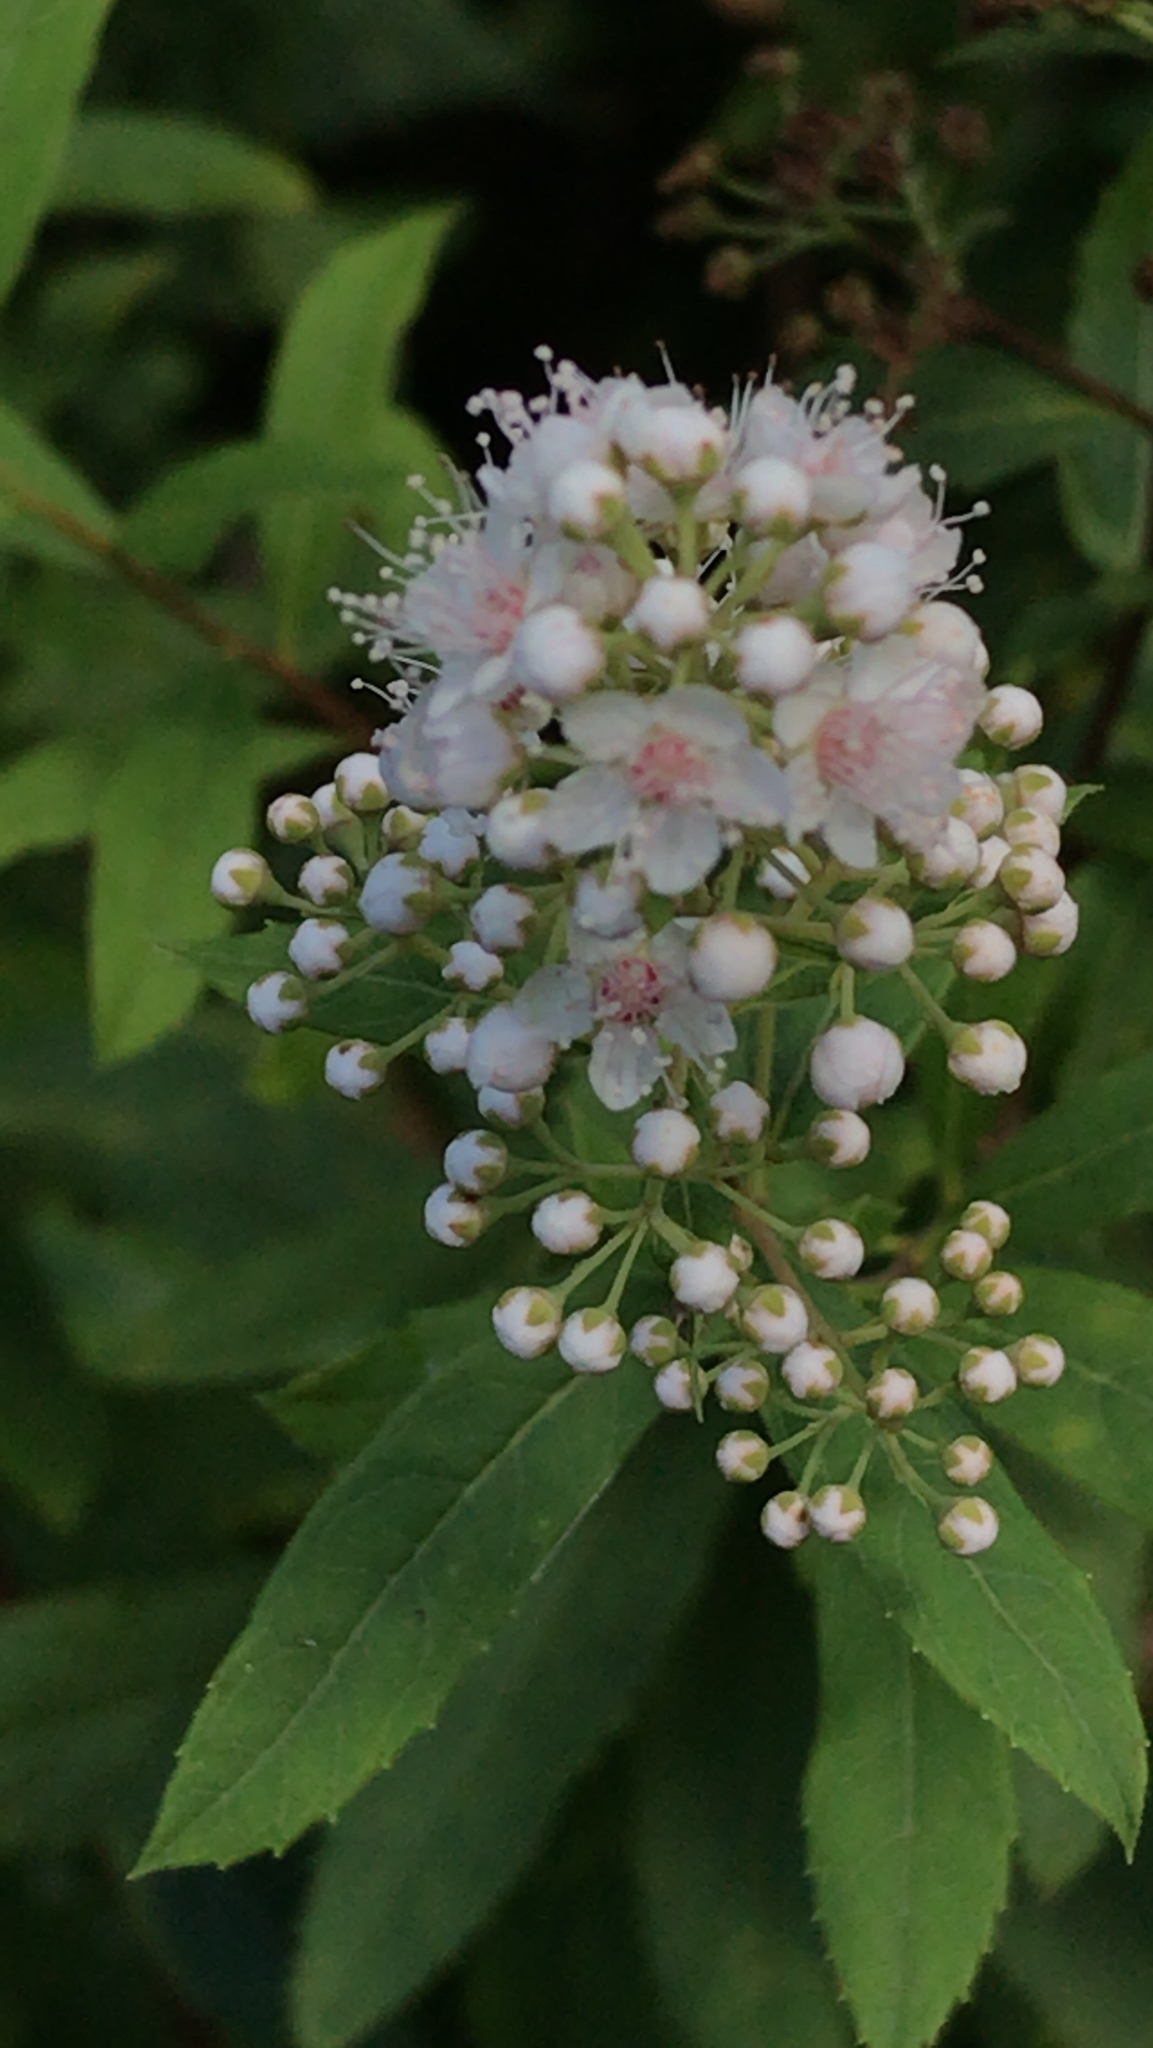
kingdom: Plantae
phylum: Tracheophyta
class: Magnoliopsida
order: Rosales
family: Rosaceae
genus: Spiraea
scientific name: Spiraea alba
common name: Pale bridewort
